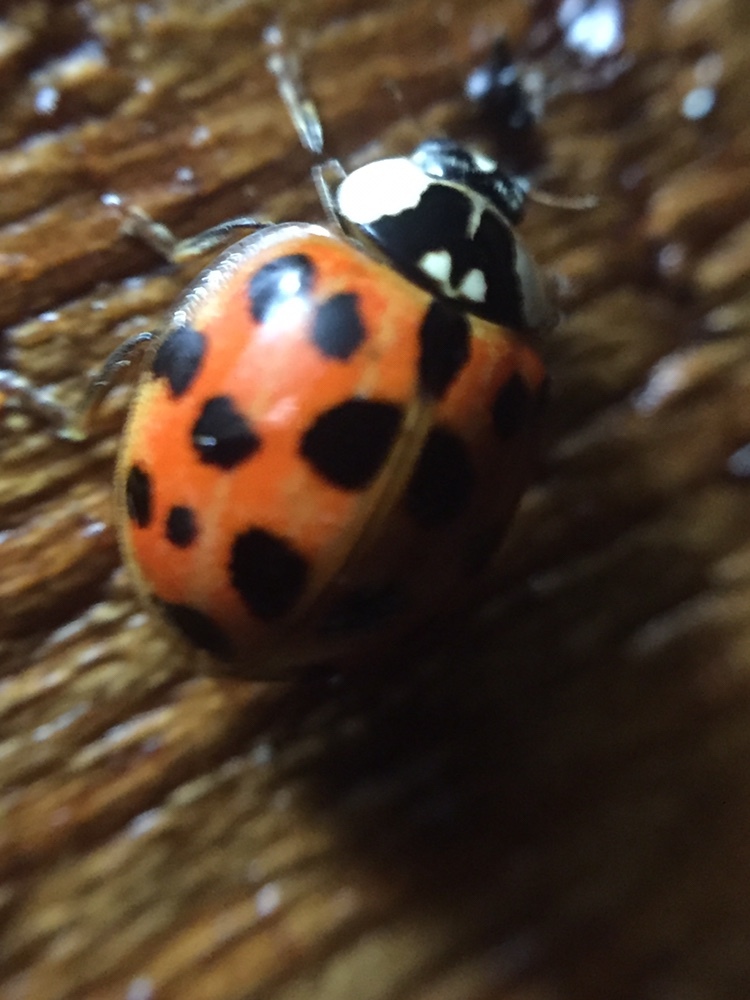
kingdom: Animalia
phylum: Arthropoda
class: Insecta
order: Coleoptera
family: Coccinellidae
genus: Harmonia
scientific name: Harmonia axyridis
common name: Harlequin ladybird
